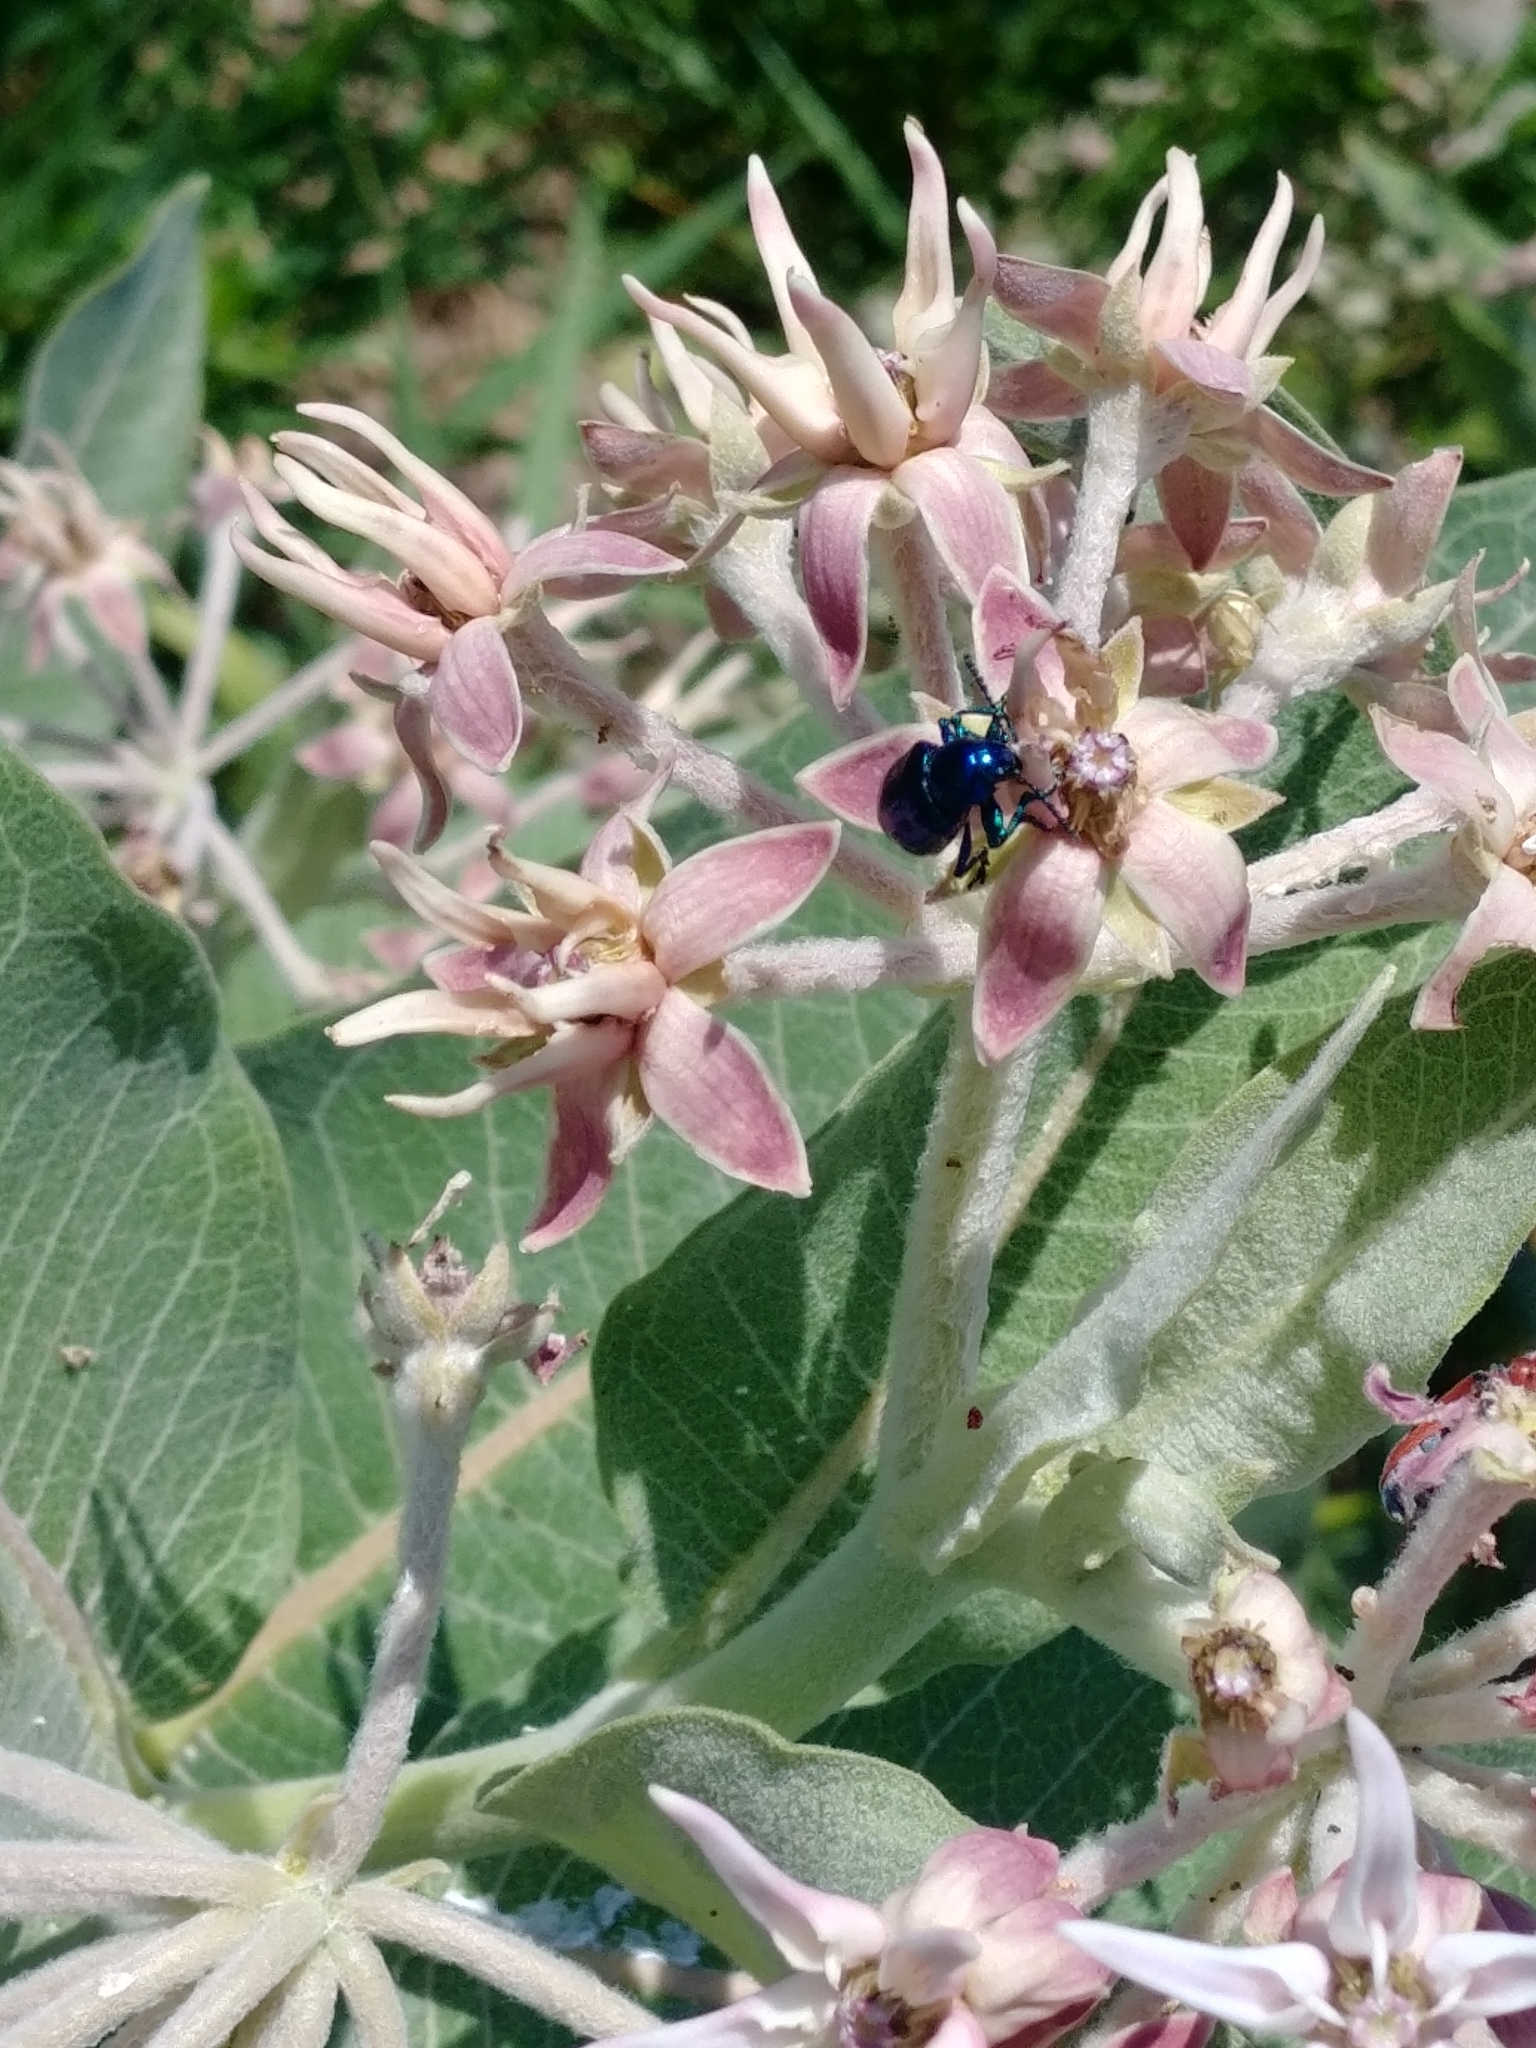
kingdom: Animalia
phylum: Arthropoda
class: Insecta
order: Coleoptera
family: Chrysomelidae
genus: Chrysochus
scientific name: Chrysochus cobaltinus
